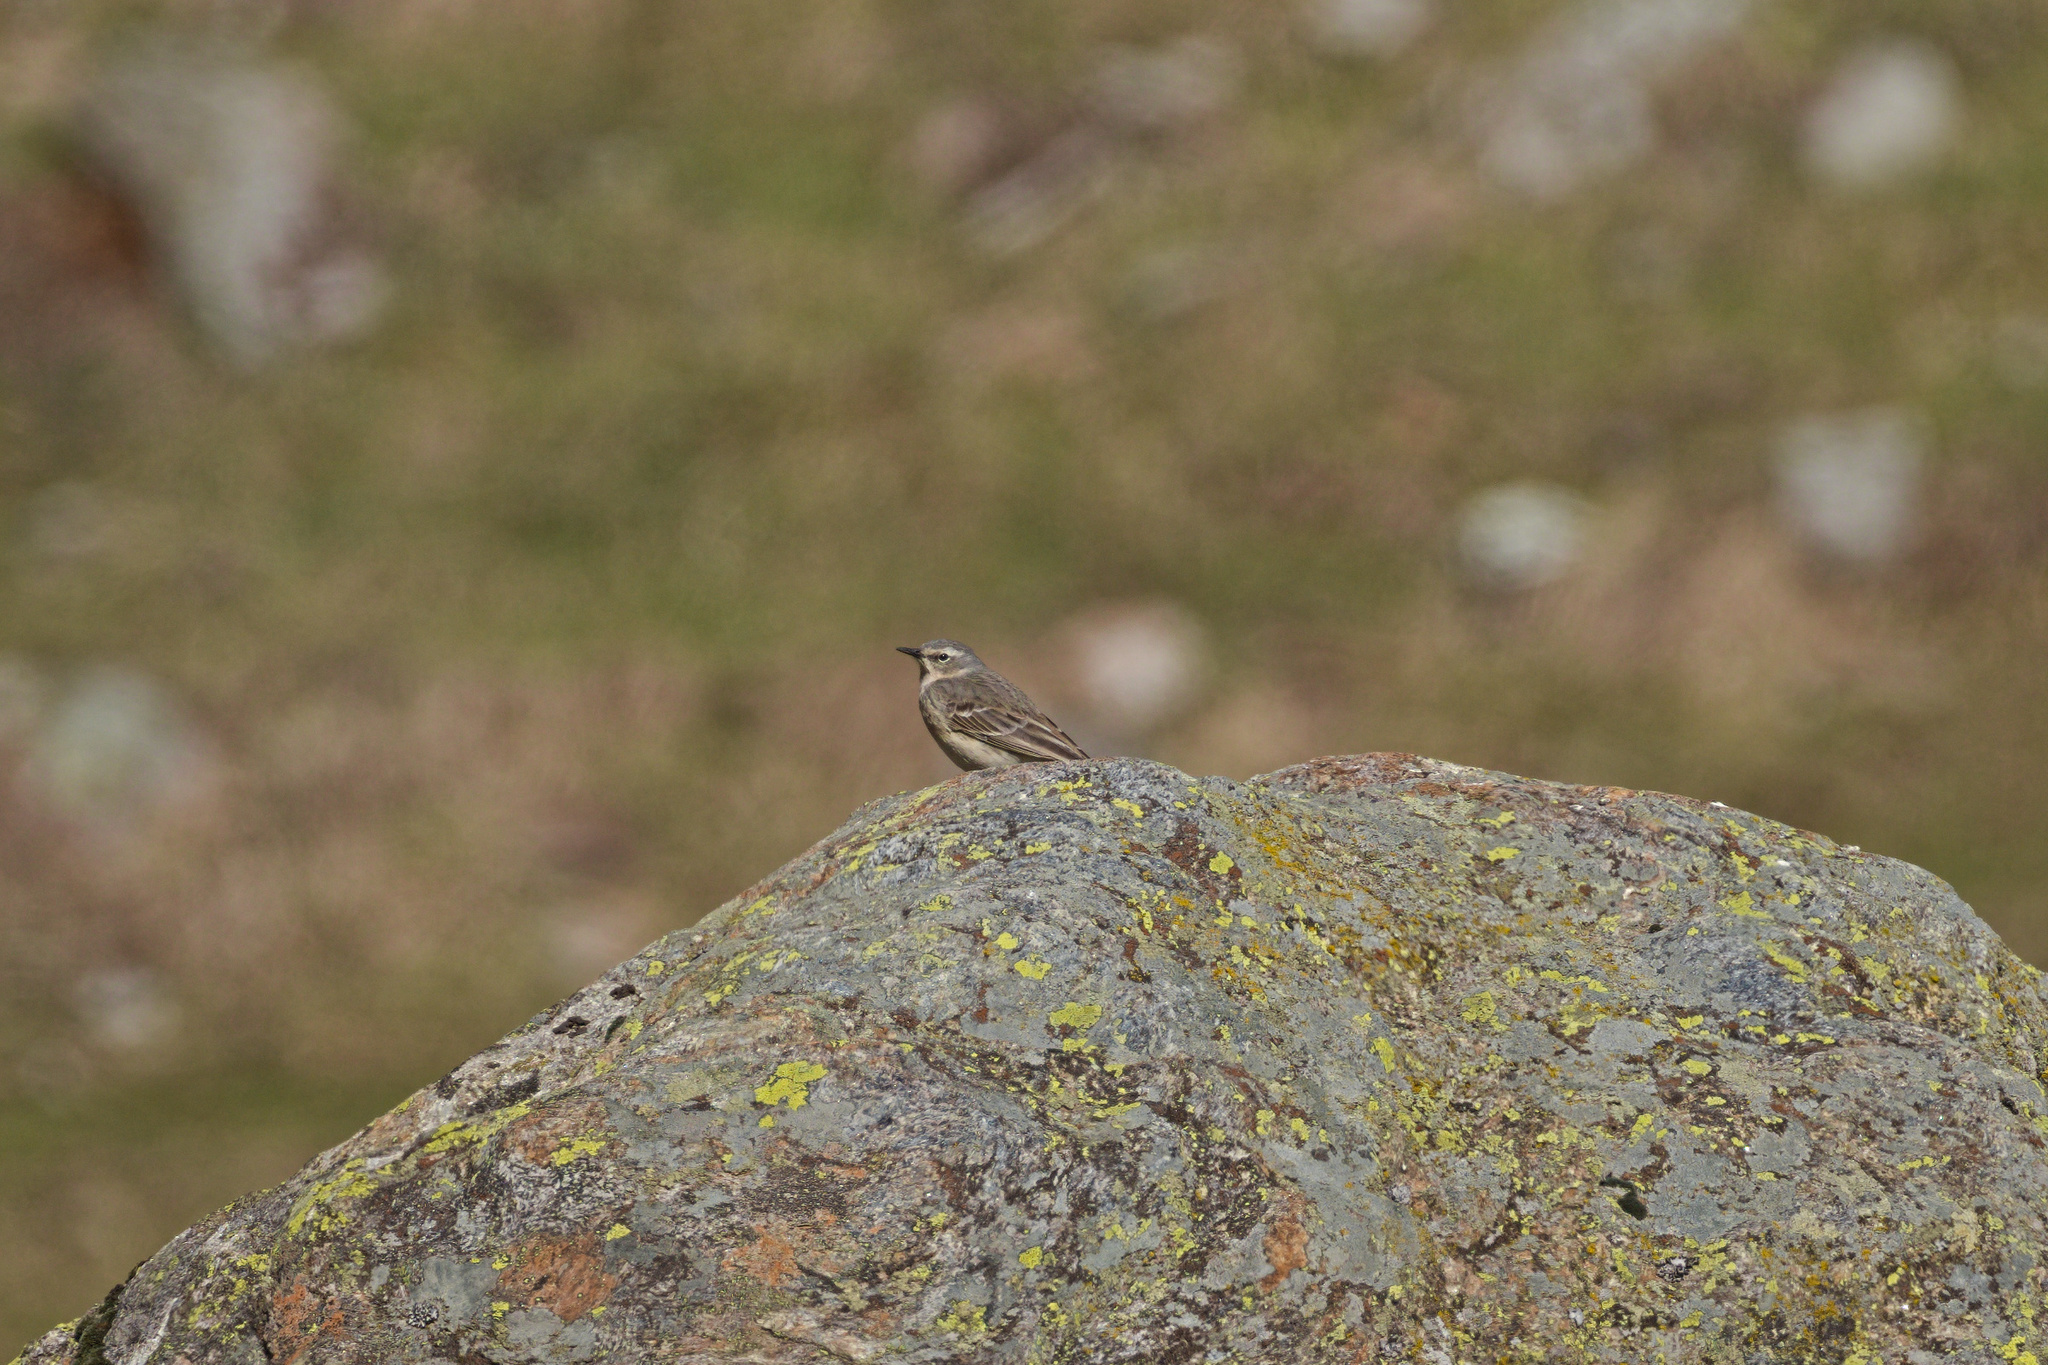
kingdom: Animalia
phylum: Chordata
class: Aves
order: Passeriformes
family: Motacillidae
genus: Anthus
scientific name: Anthus spinoletta
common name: Water pipit
